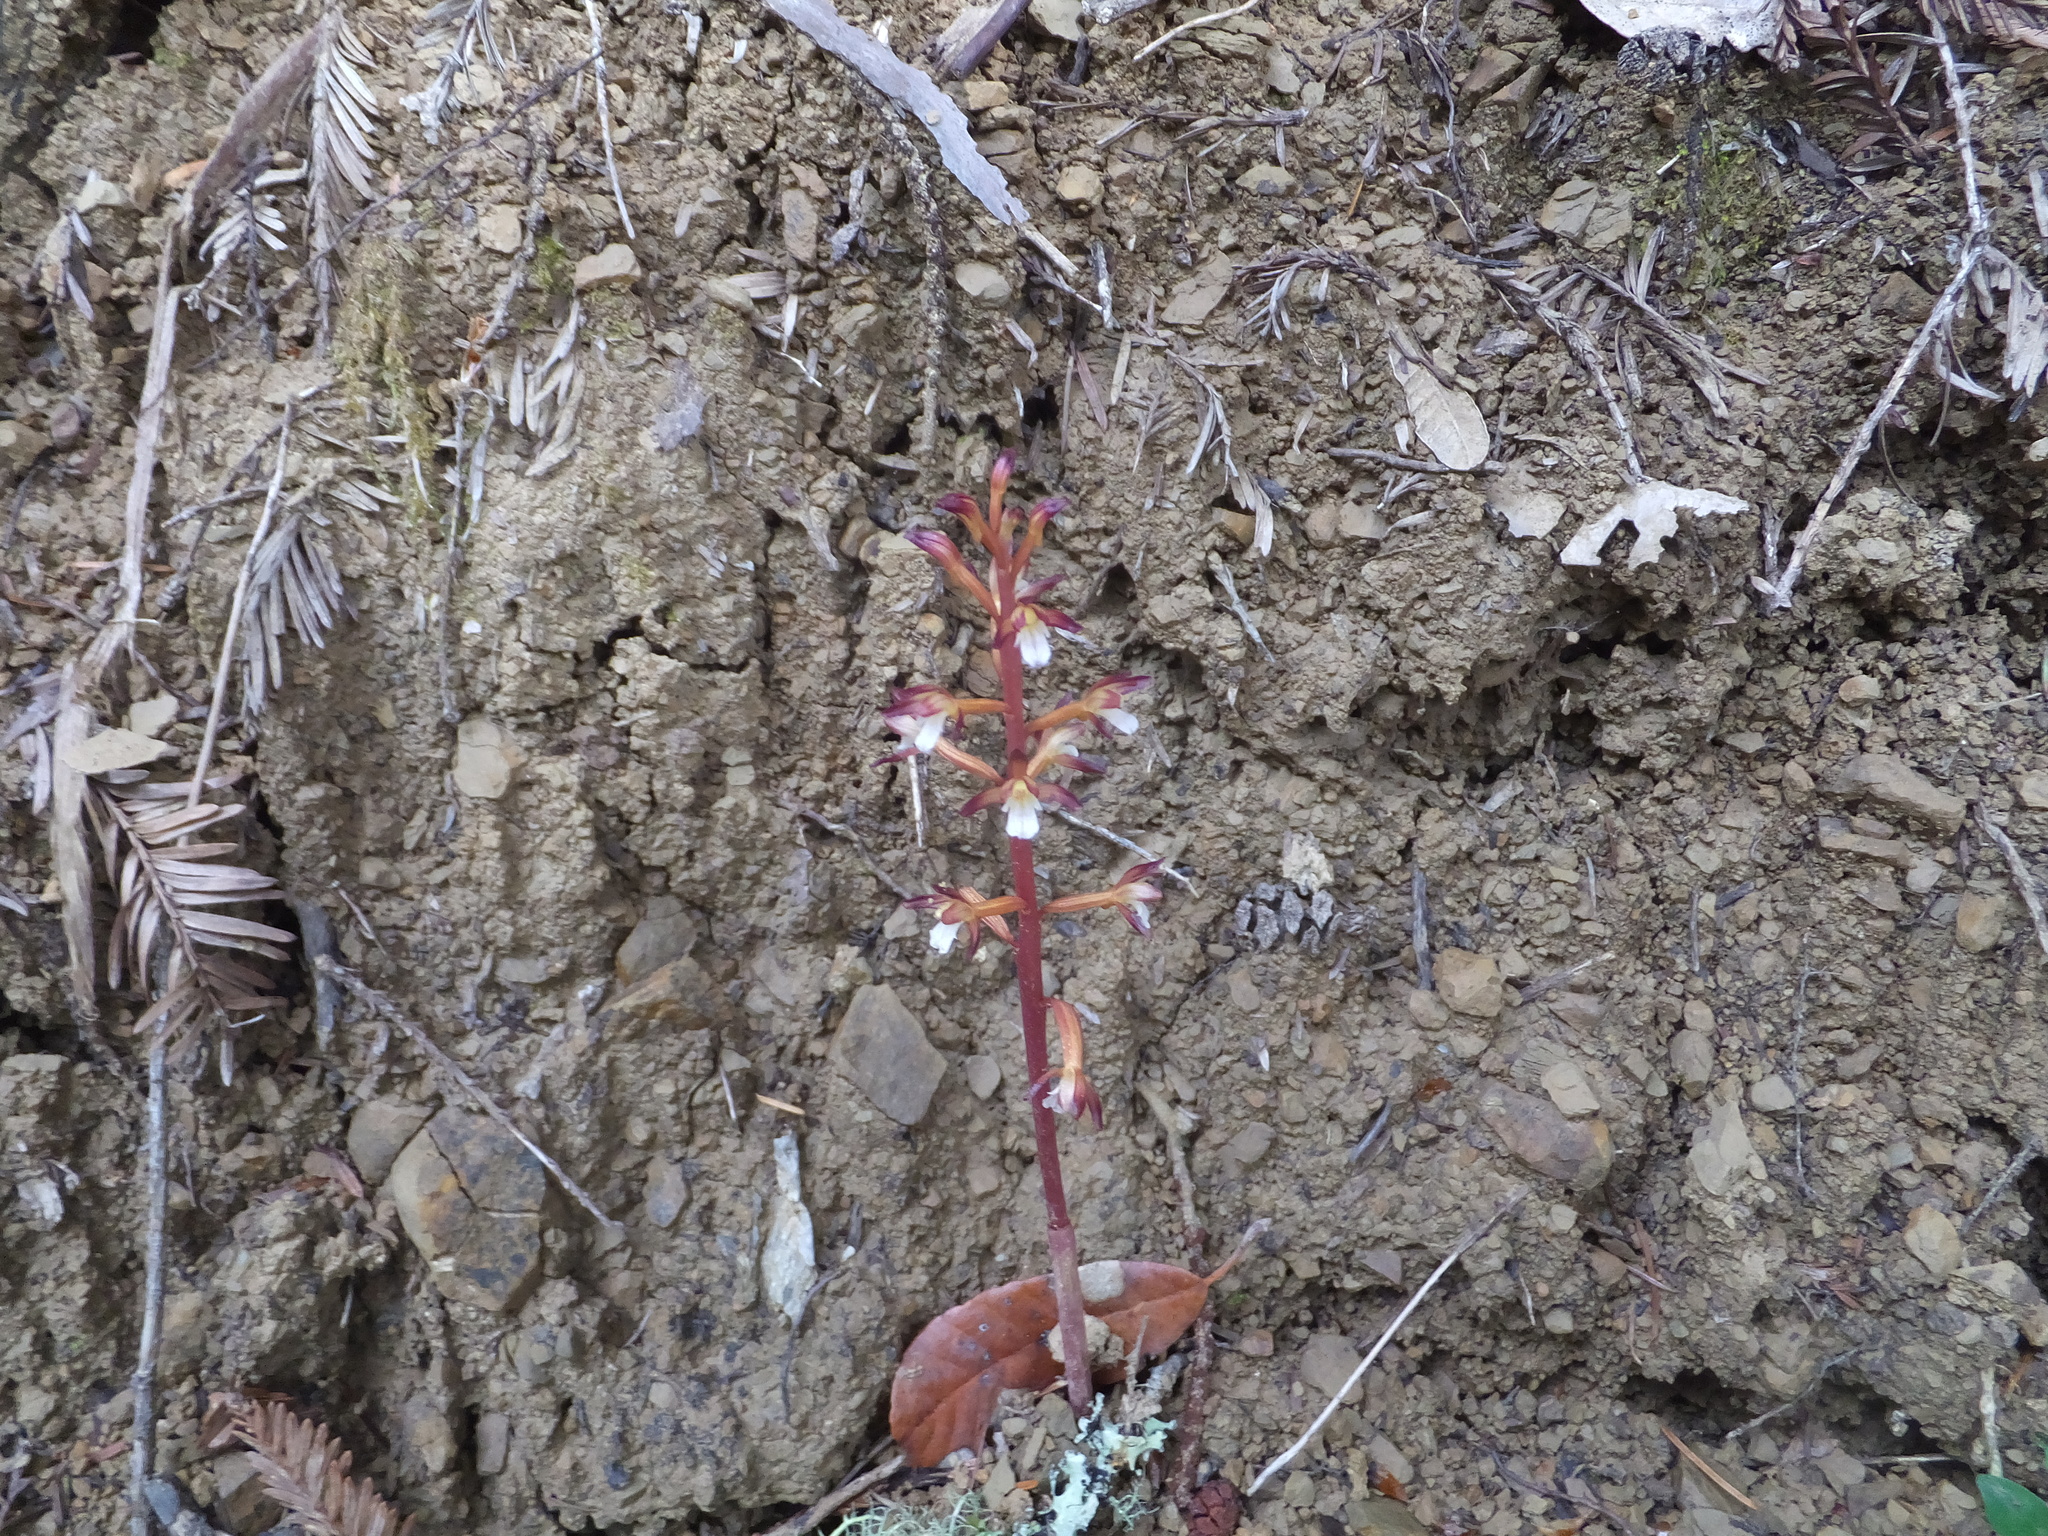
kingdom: Plantae
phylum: Tracheophyta
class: Liliopsida
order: Asparagales
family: Orchidaceae
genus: Corallorhiza
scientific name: Corallorhiza maculata
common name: Spotted coralroot
